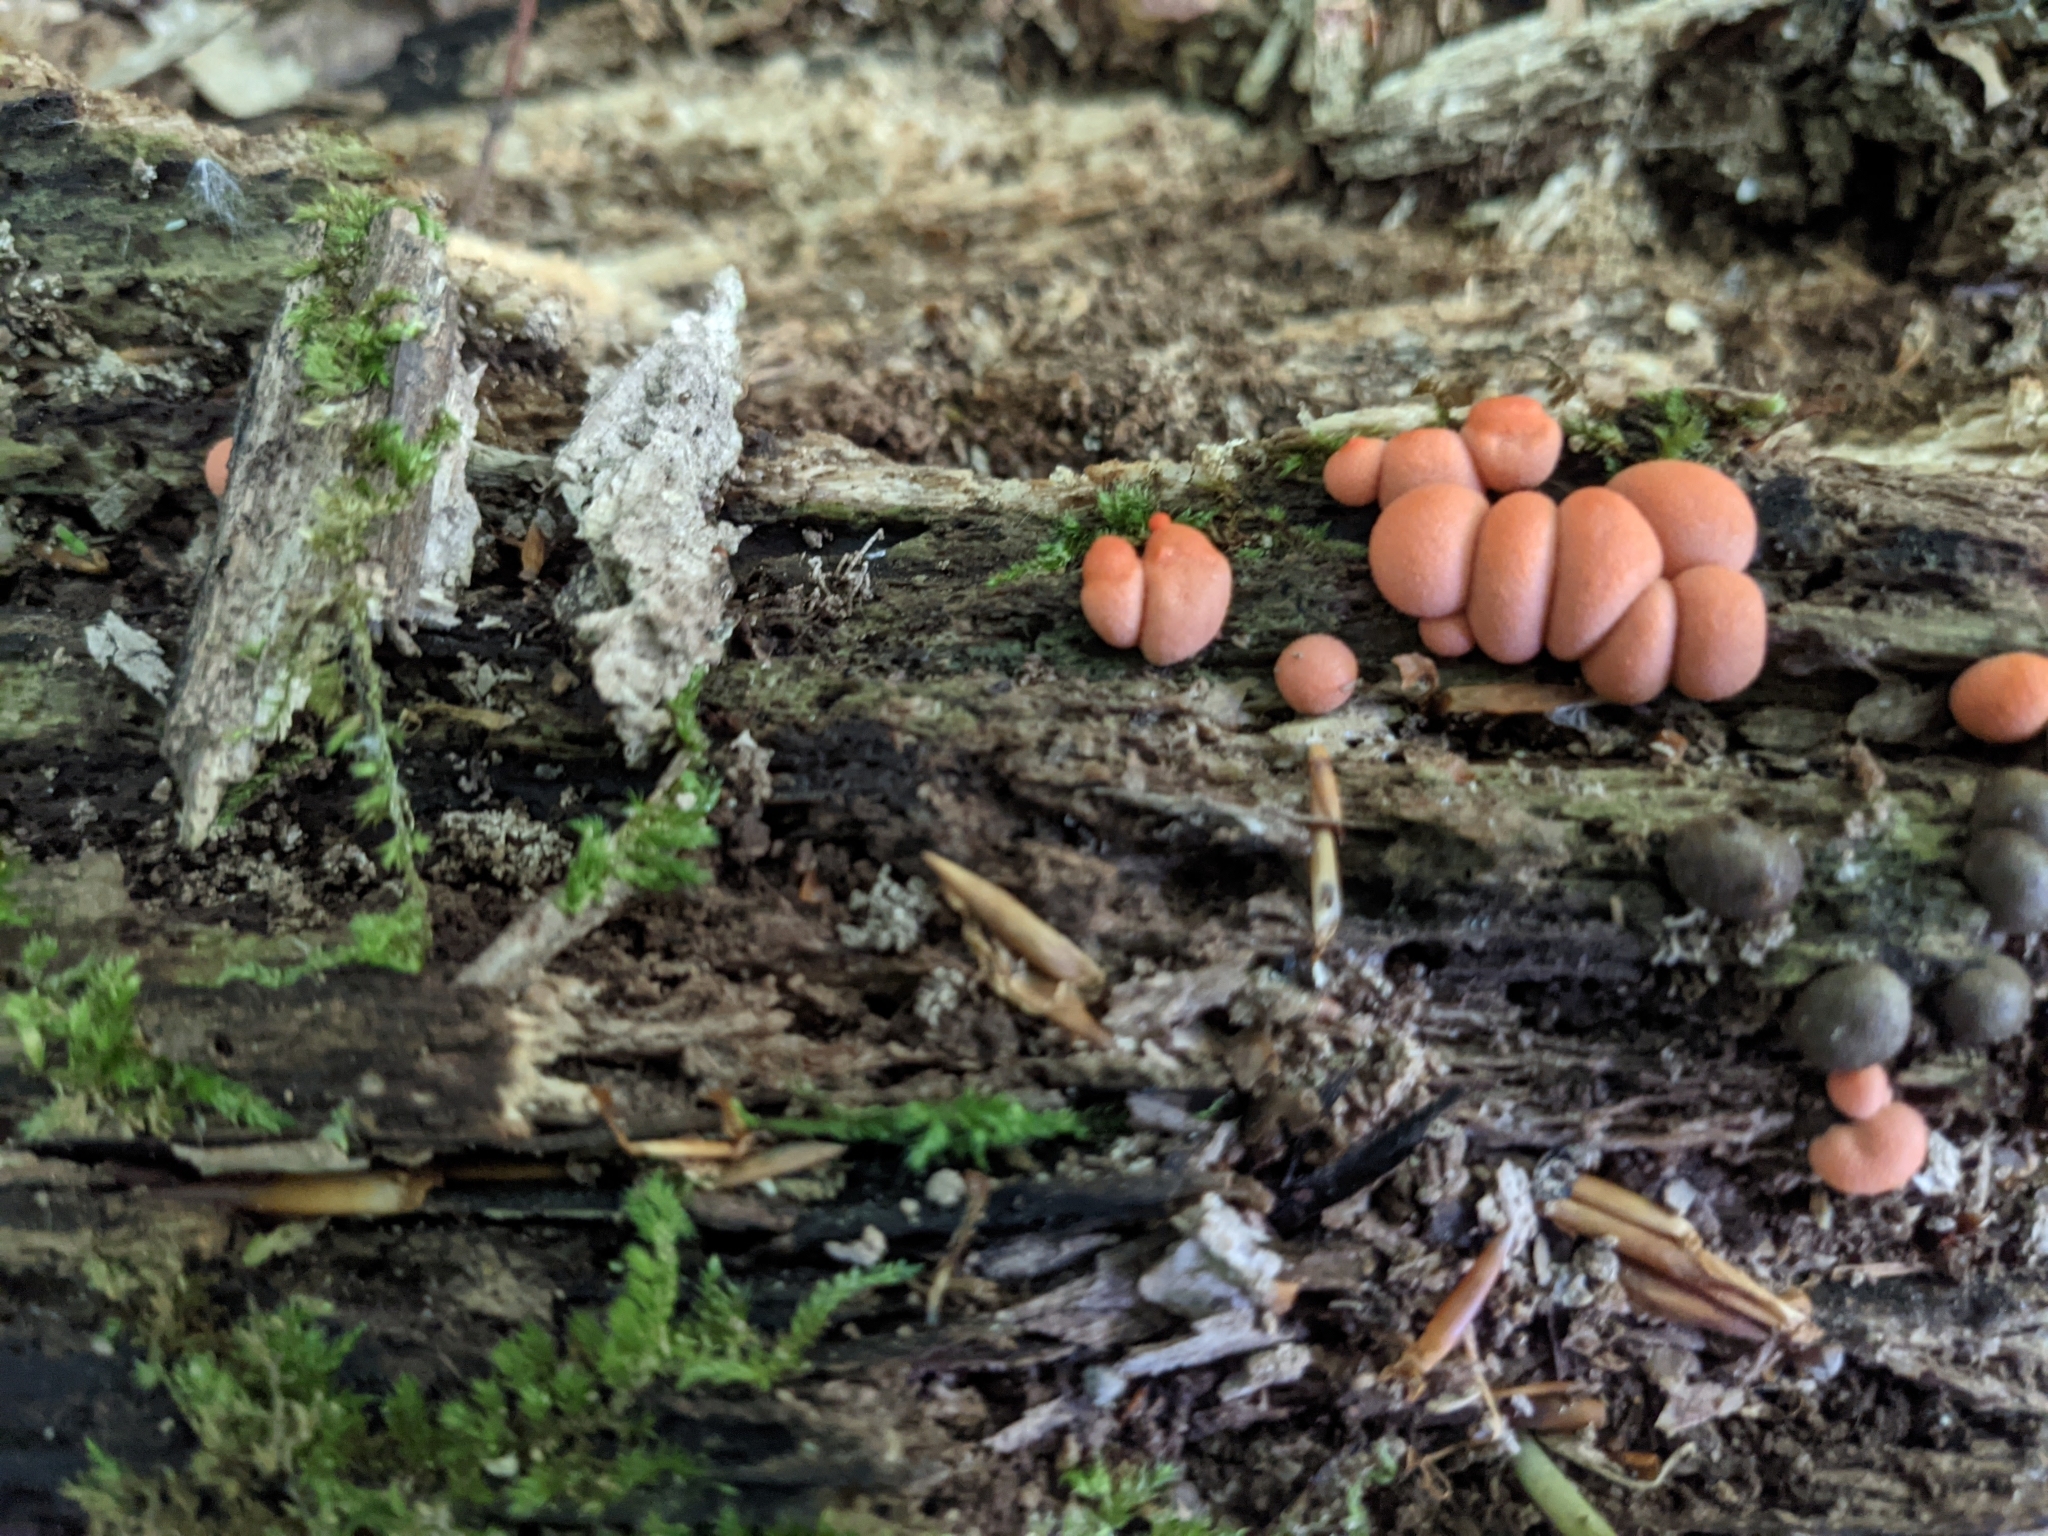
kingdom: Protozoa
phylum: Mycetozoa
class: Myxomycetes
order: Cribrariales
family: Tubiferaceae
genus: Lycogala
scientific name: Lycogala epidendrum
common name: Wolf's milk
